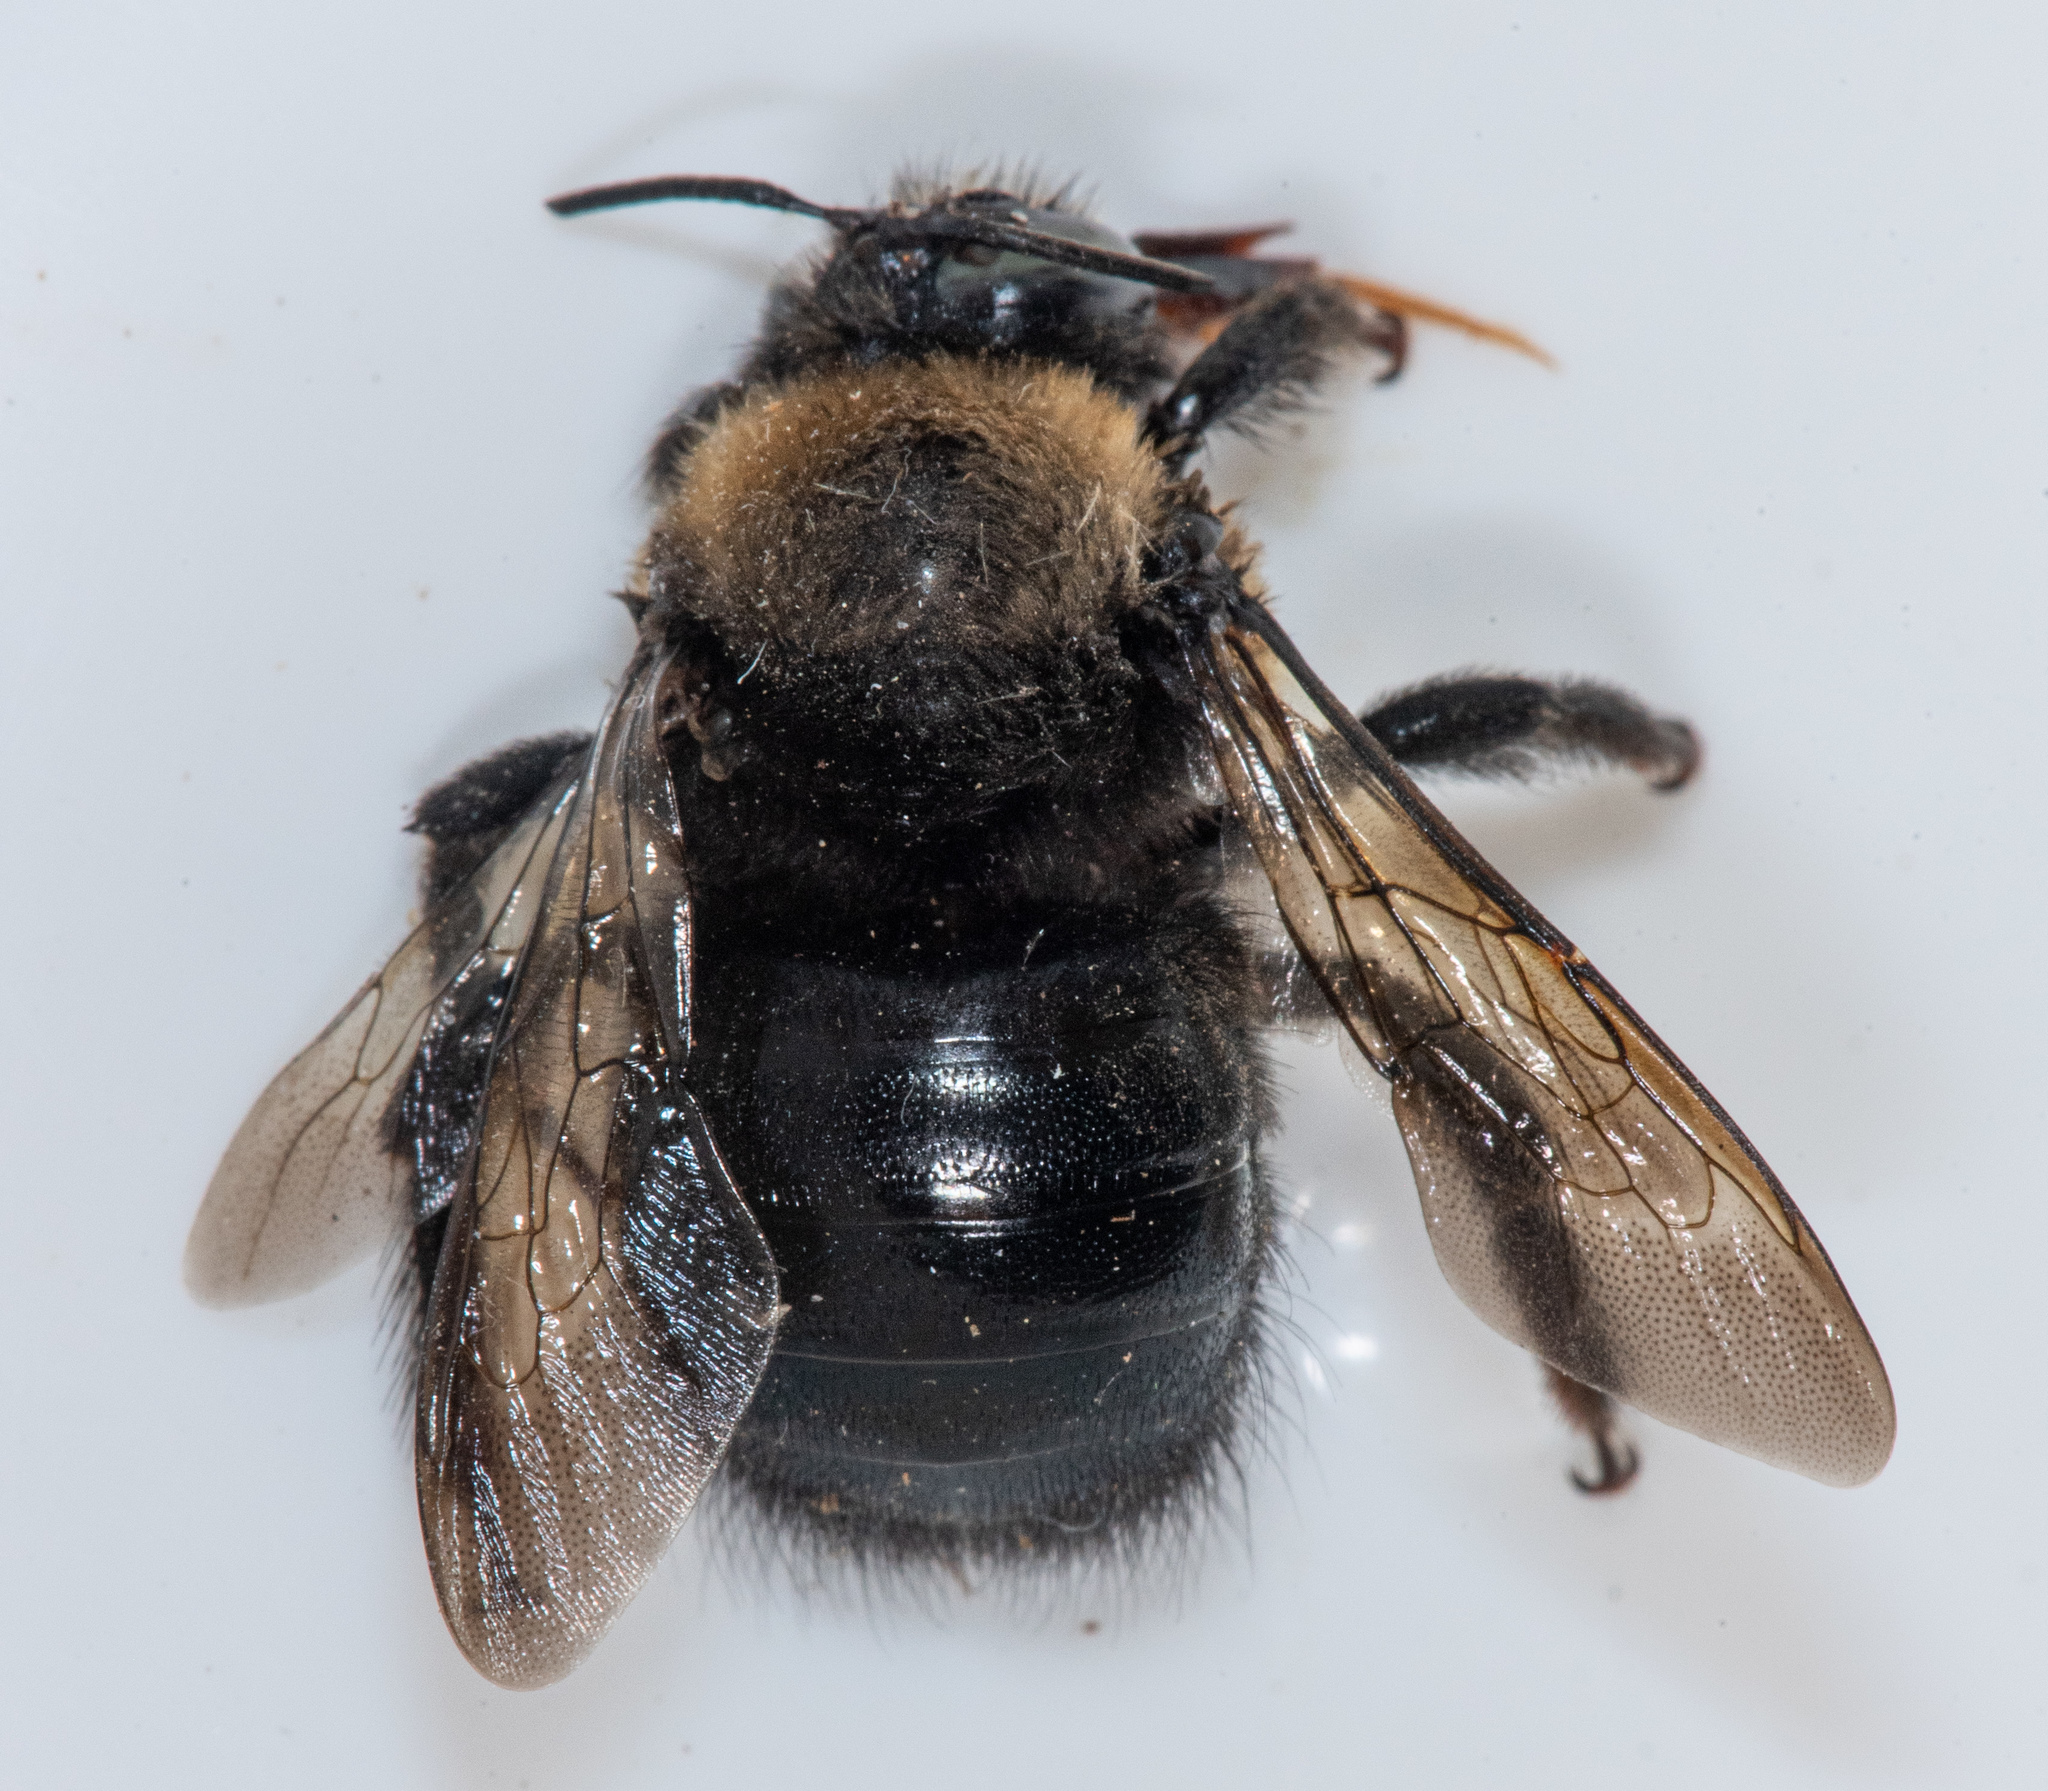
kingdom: Animalia
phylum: Arthropoda
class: Insecta
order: Hymenoptera
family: Apidae
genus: Xylocopa
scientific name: Xylocopa tabaniformis
